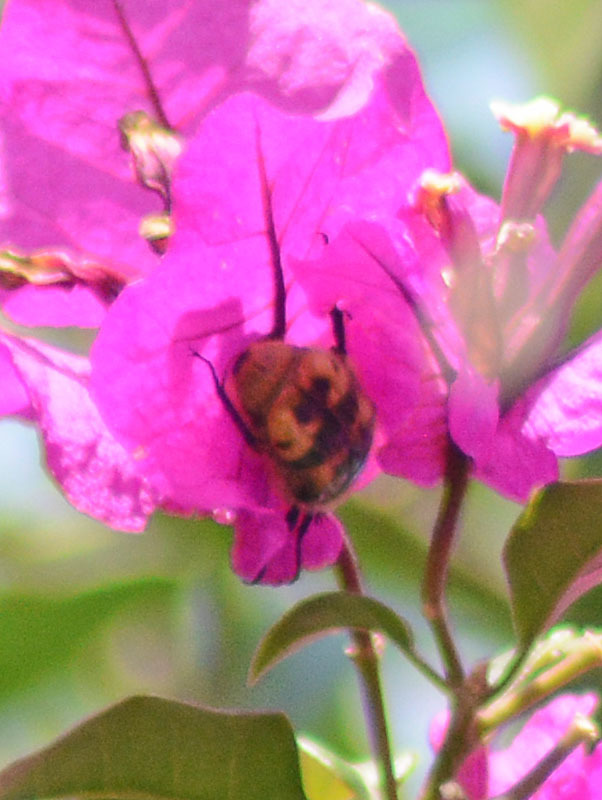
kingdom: Animalia
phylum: Arthropoda
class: Insecta
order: Coleoptera
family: Scarabaeidae
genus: Euphoria
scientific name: Euphoria basalis
